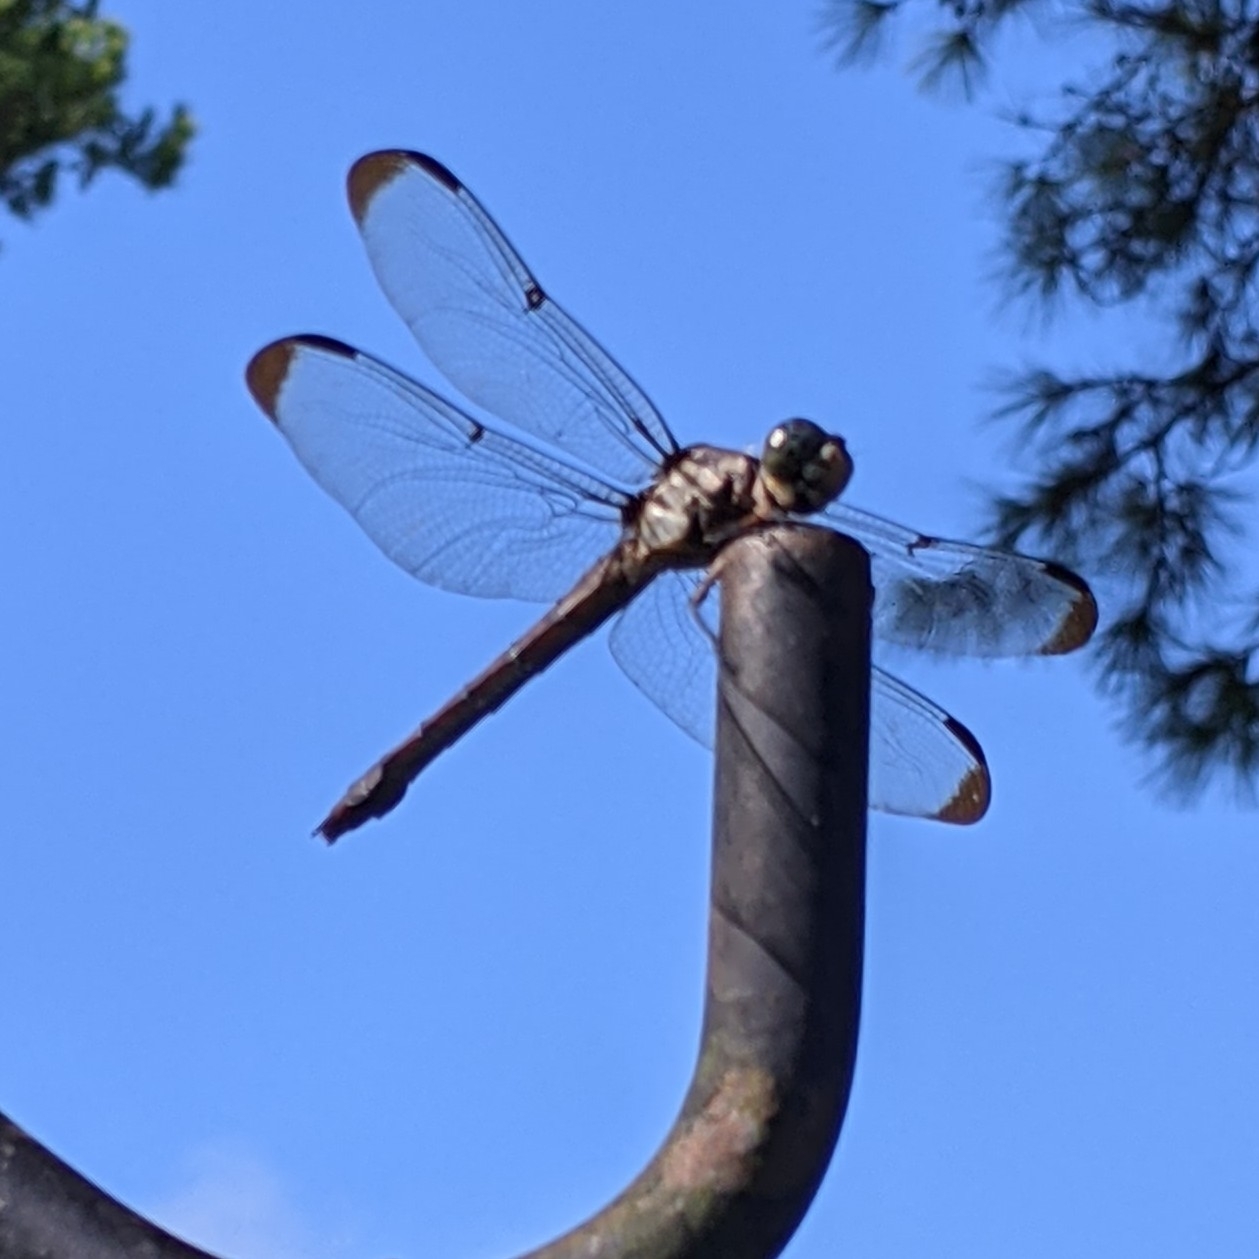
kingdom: Animalia
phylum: Arthropoda
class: Insecta
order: Odonata
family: Libellulidae
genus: Libellula
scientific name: Libellula vibrans
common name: Great blue skimmer
